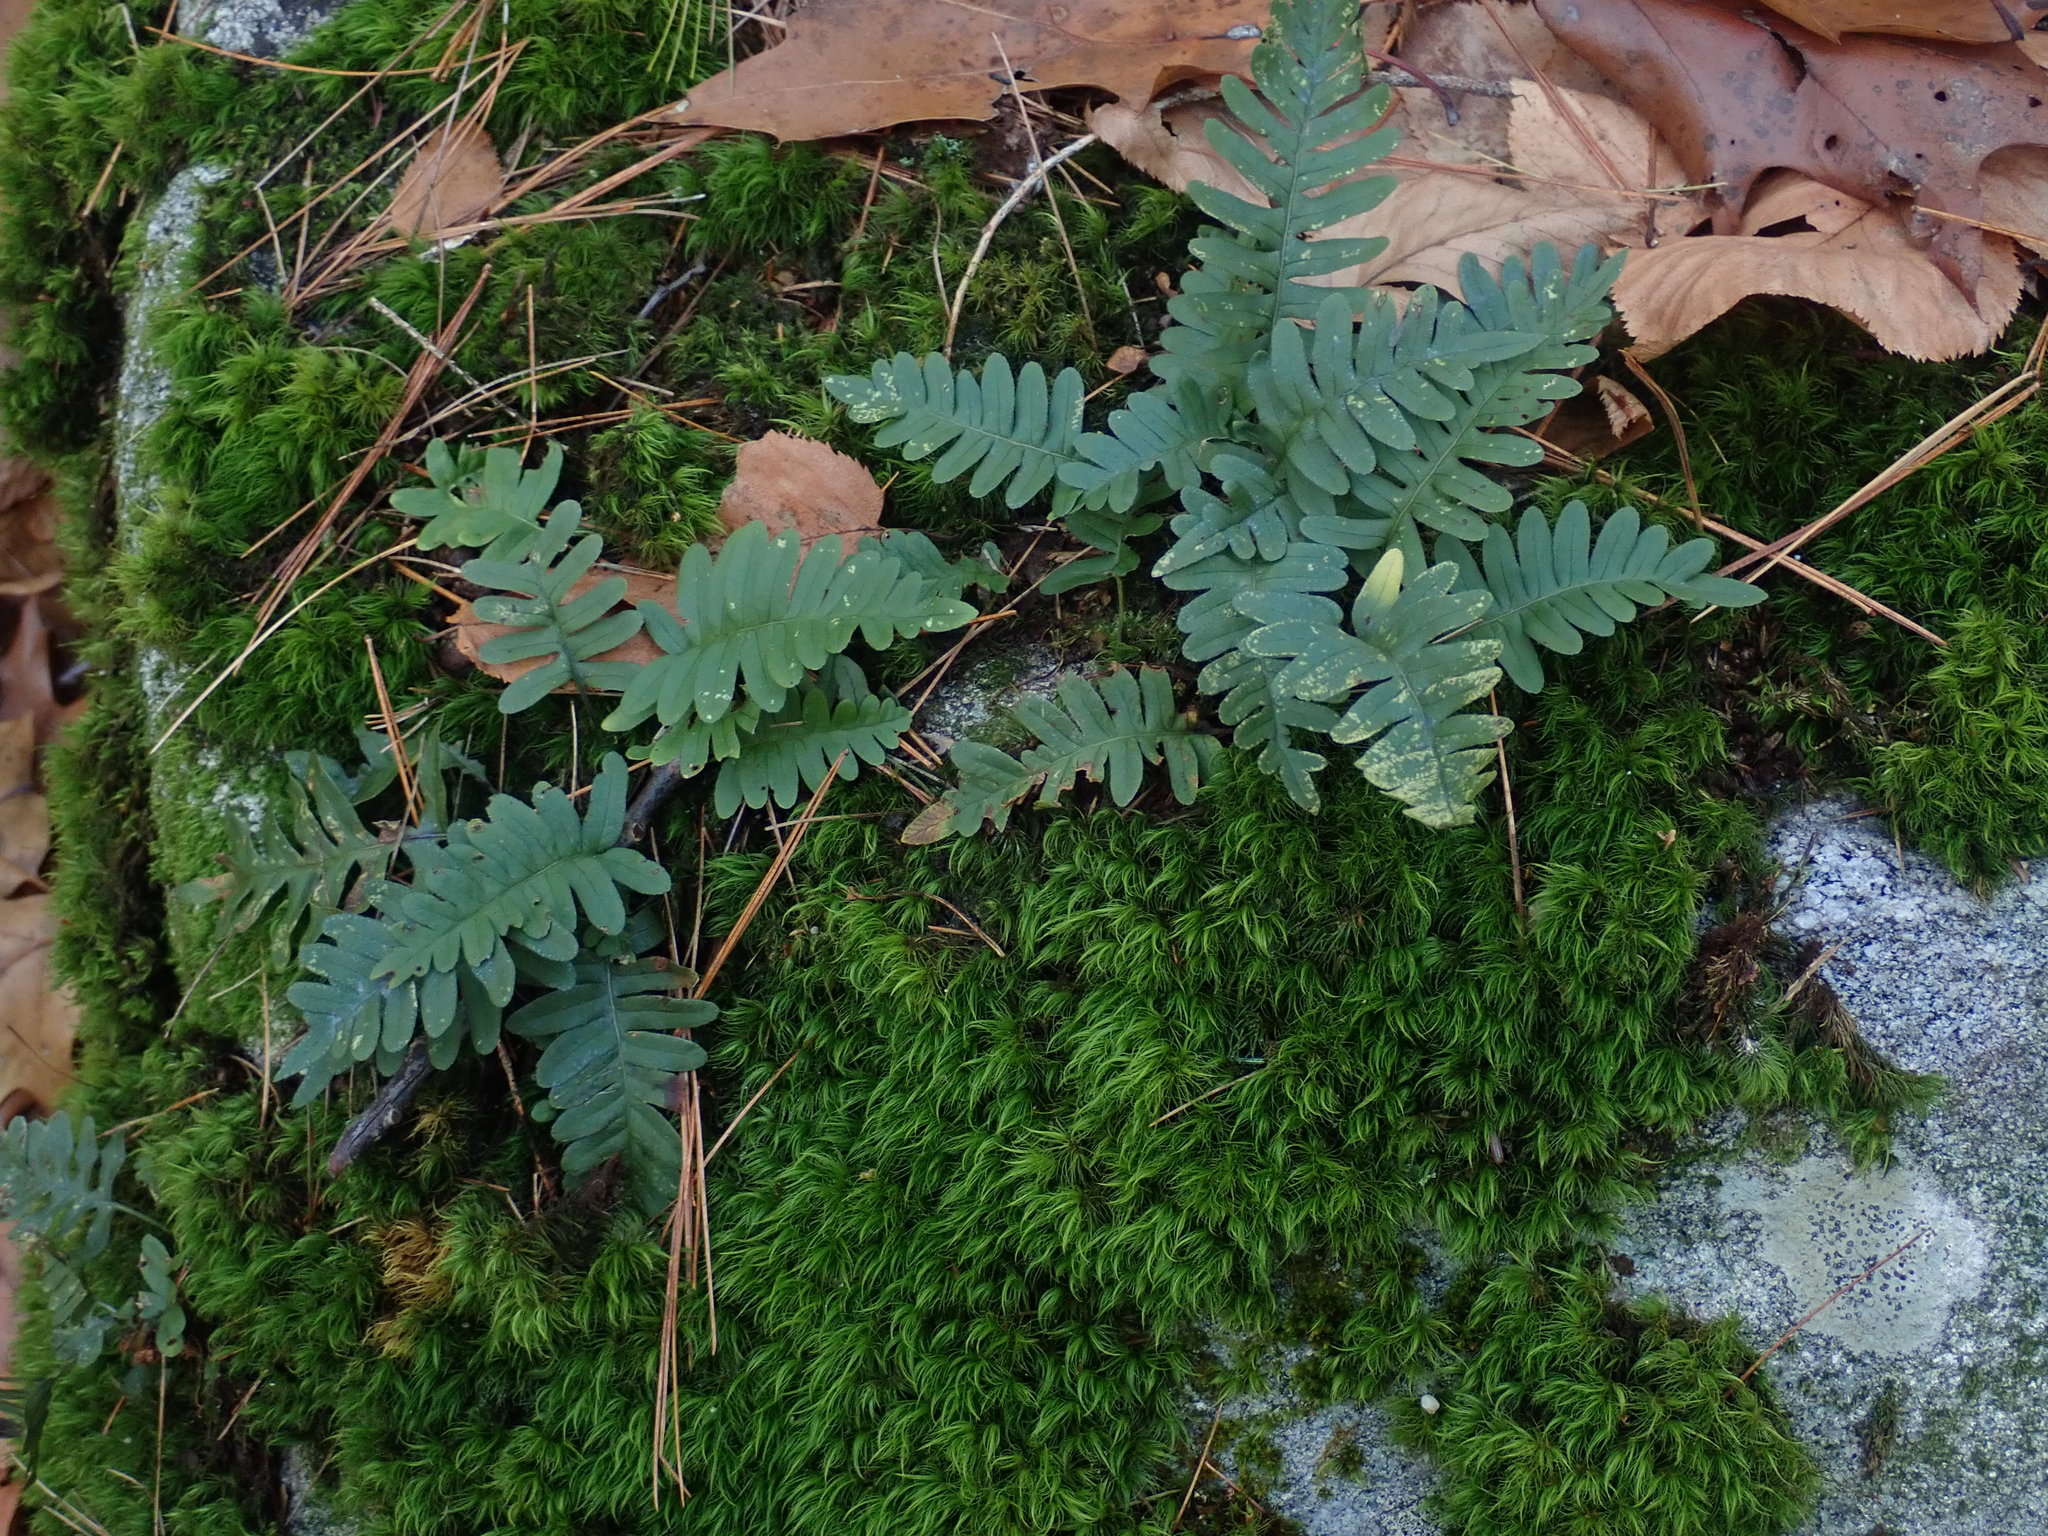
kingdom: Plantae
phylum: Tracheophyta
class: Polypodiopsida
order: Polypodiales
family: Polypodiaceae
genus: Polypodium
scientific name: Polypodium
